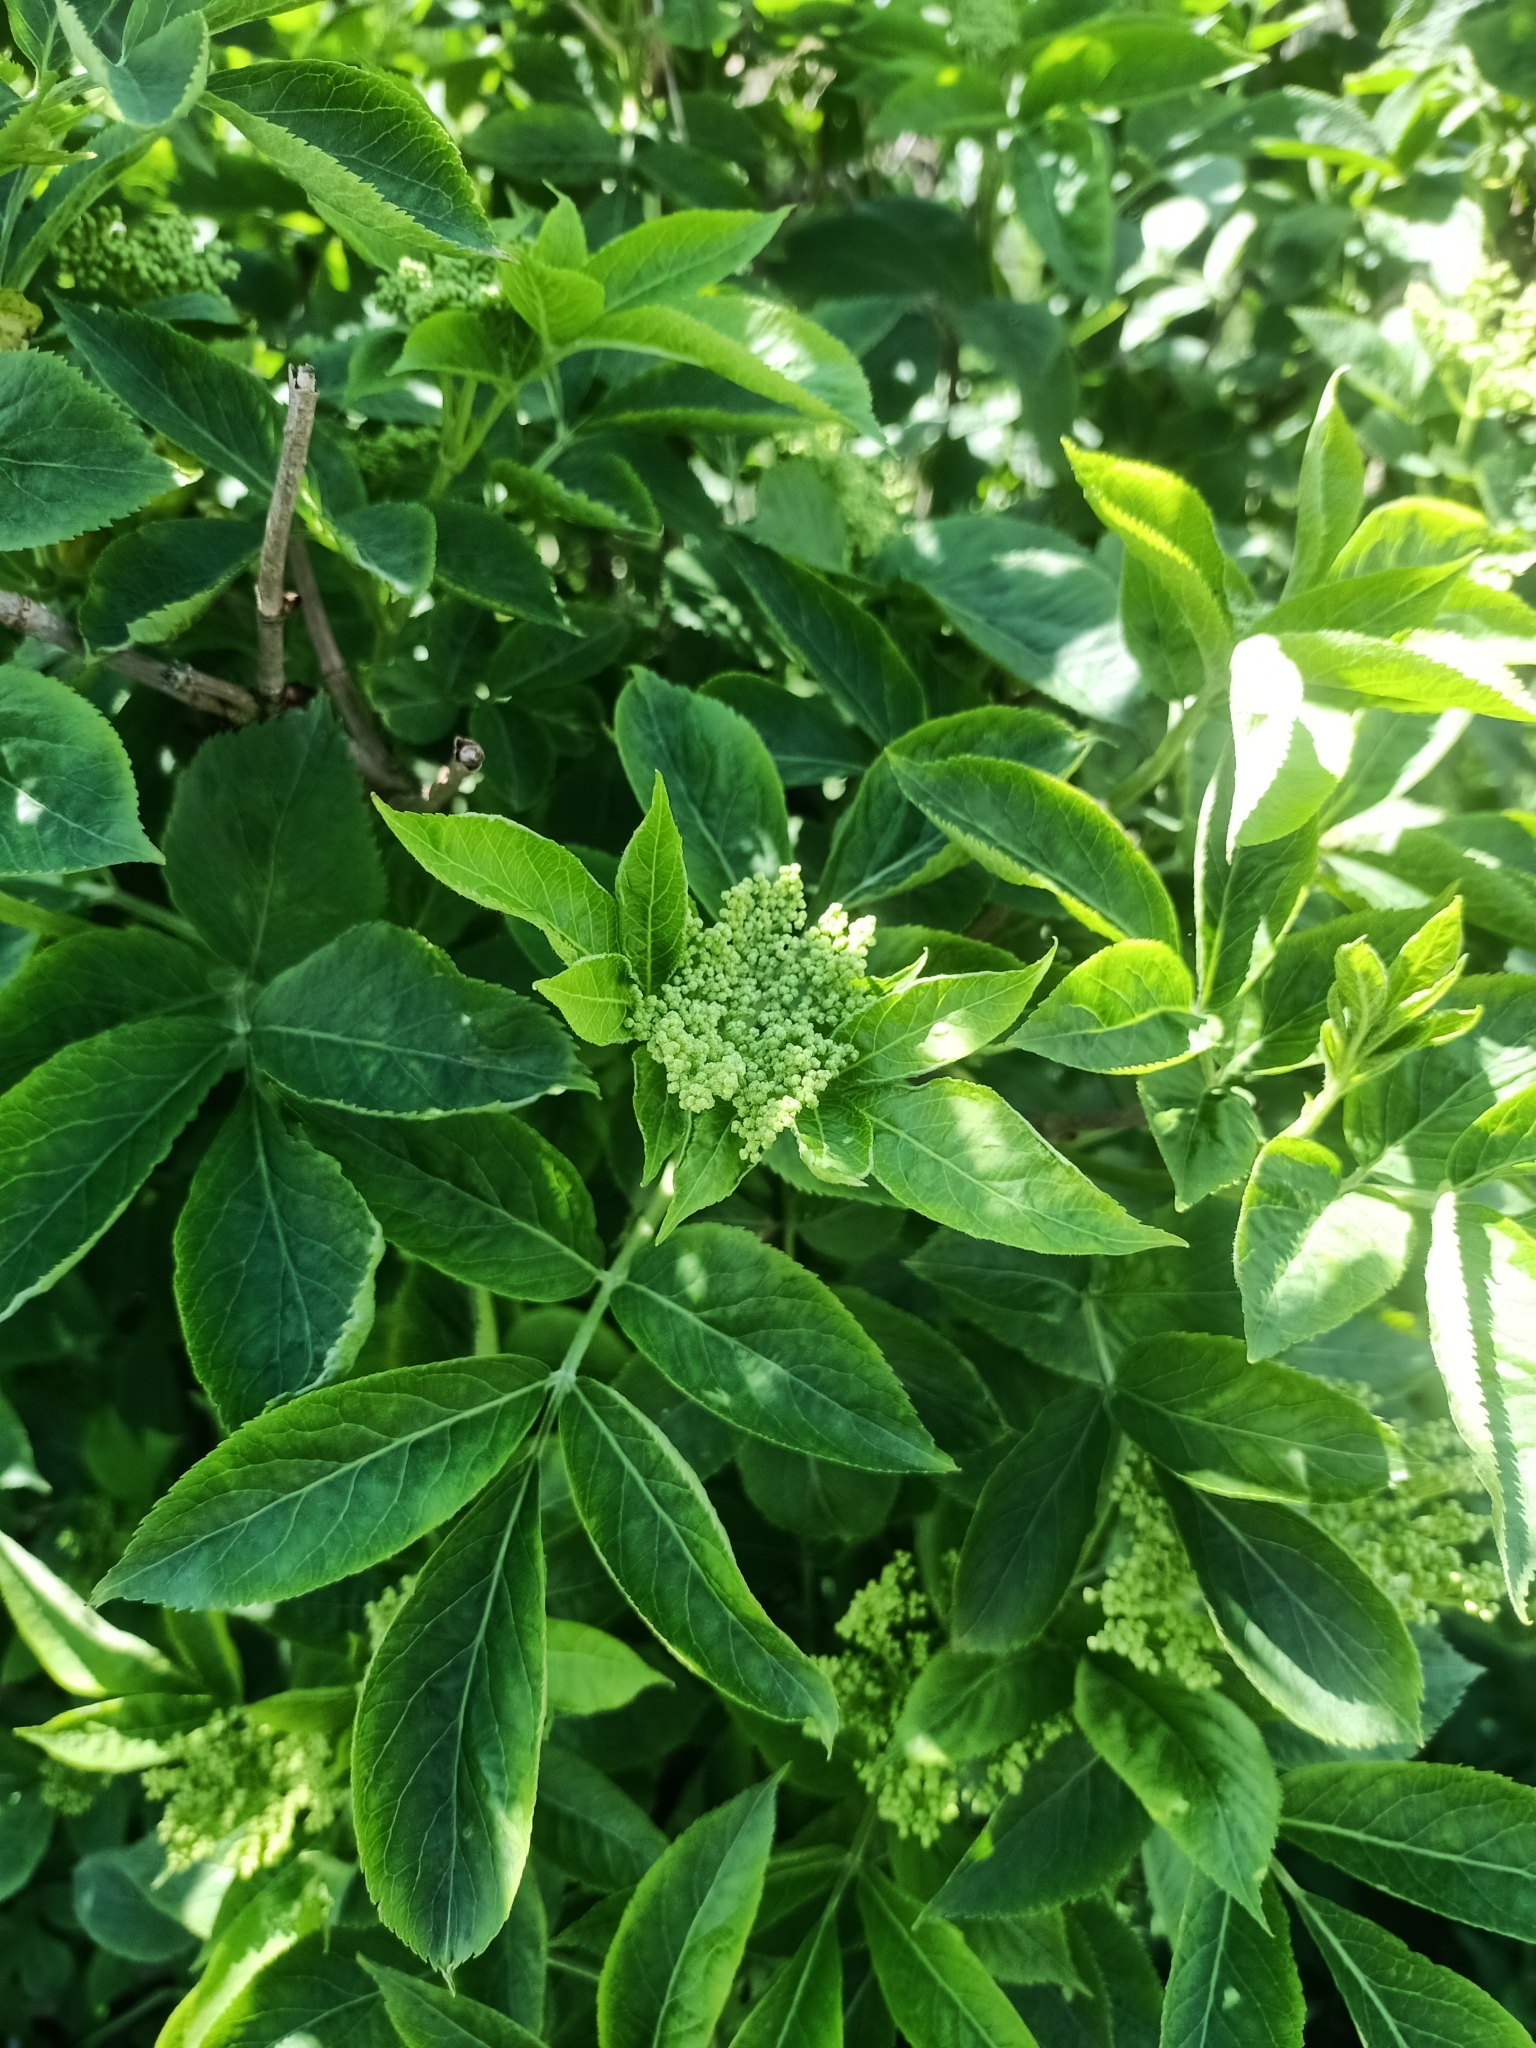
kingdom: Plantae
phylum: Tracheophyta
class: Magnoliopsida
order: Dipsacales
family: Viburnaceae
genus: Sambucus
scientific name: Sambucus nigra
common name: Elder
